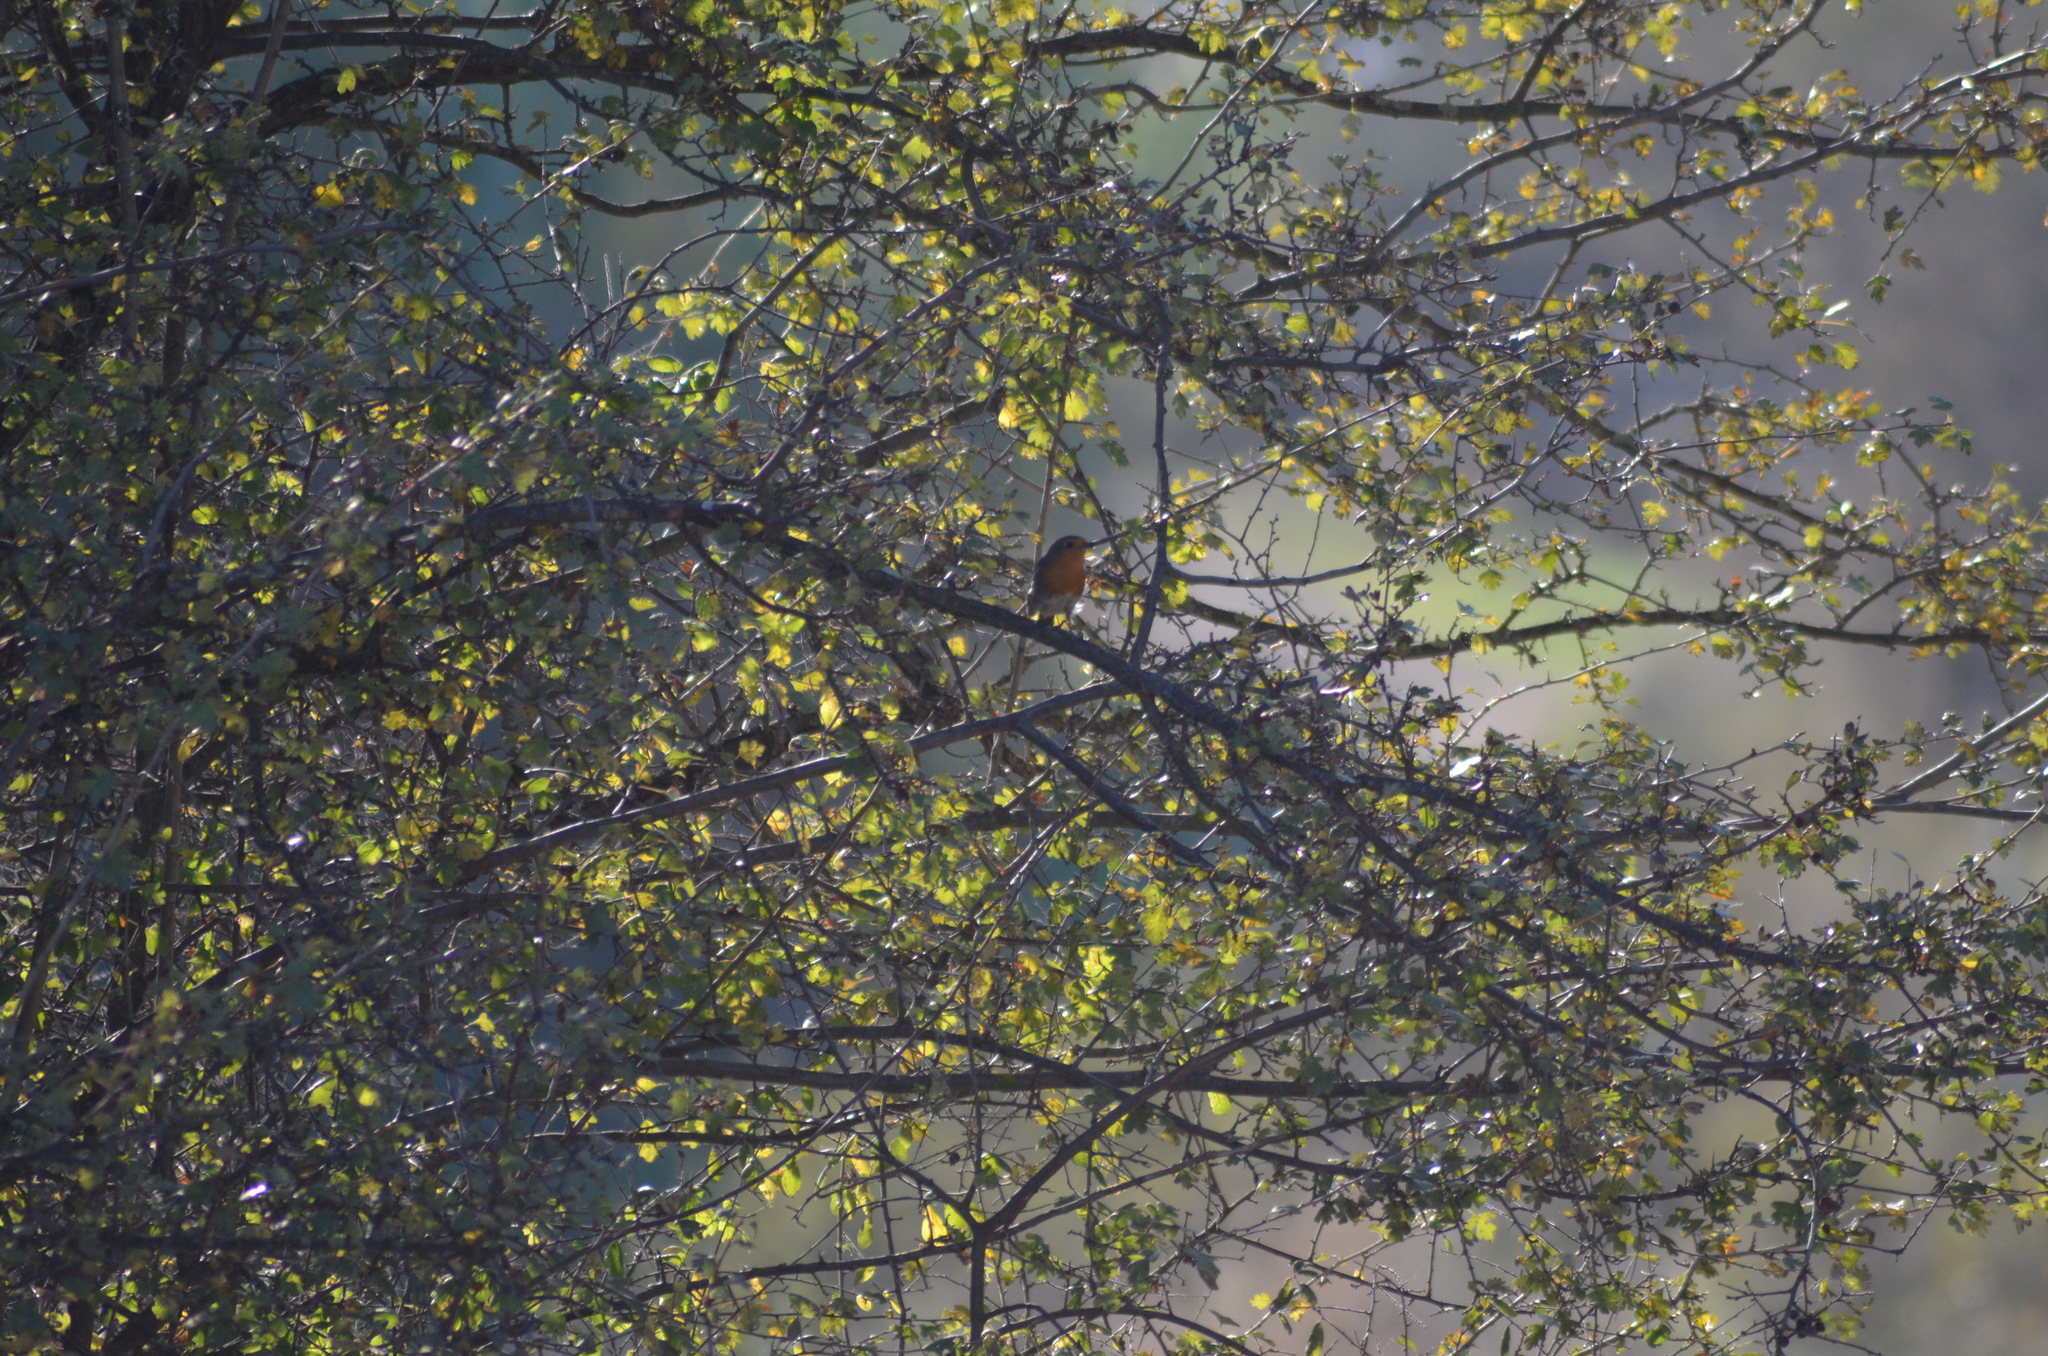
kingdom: Animalia
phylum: Chordata
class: Aves
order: Passeriformes
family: Muscicapidae
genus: Erithacus
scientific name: Erithacus rubecula
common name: European robin
